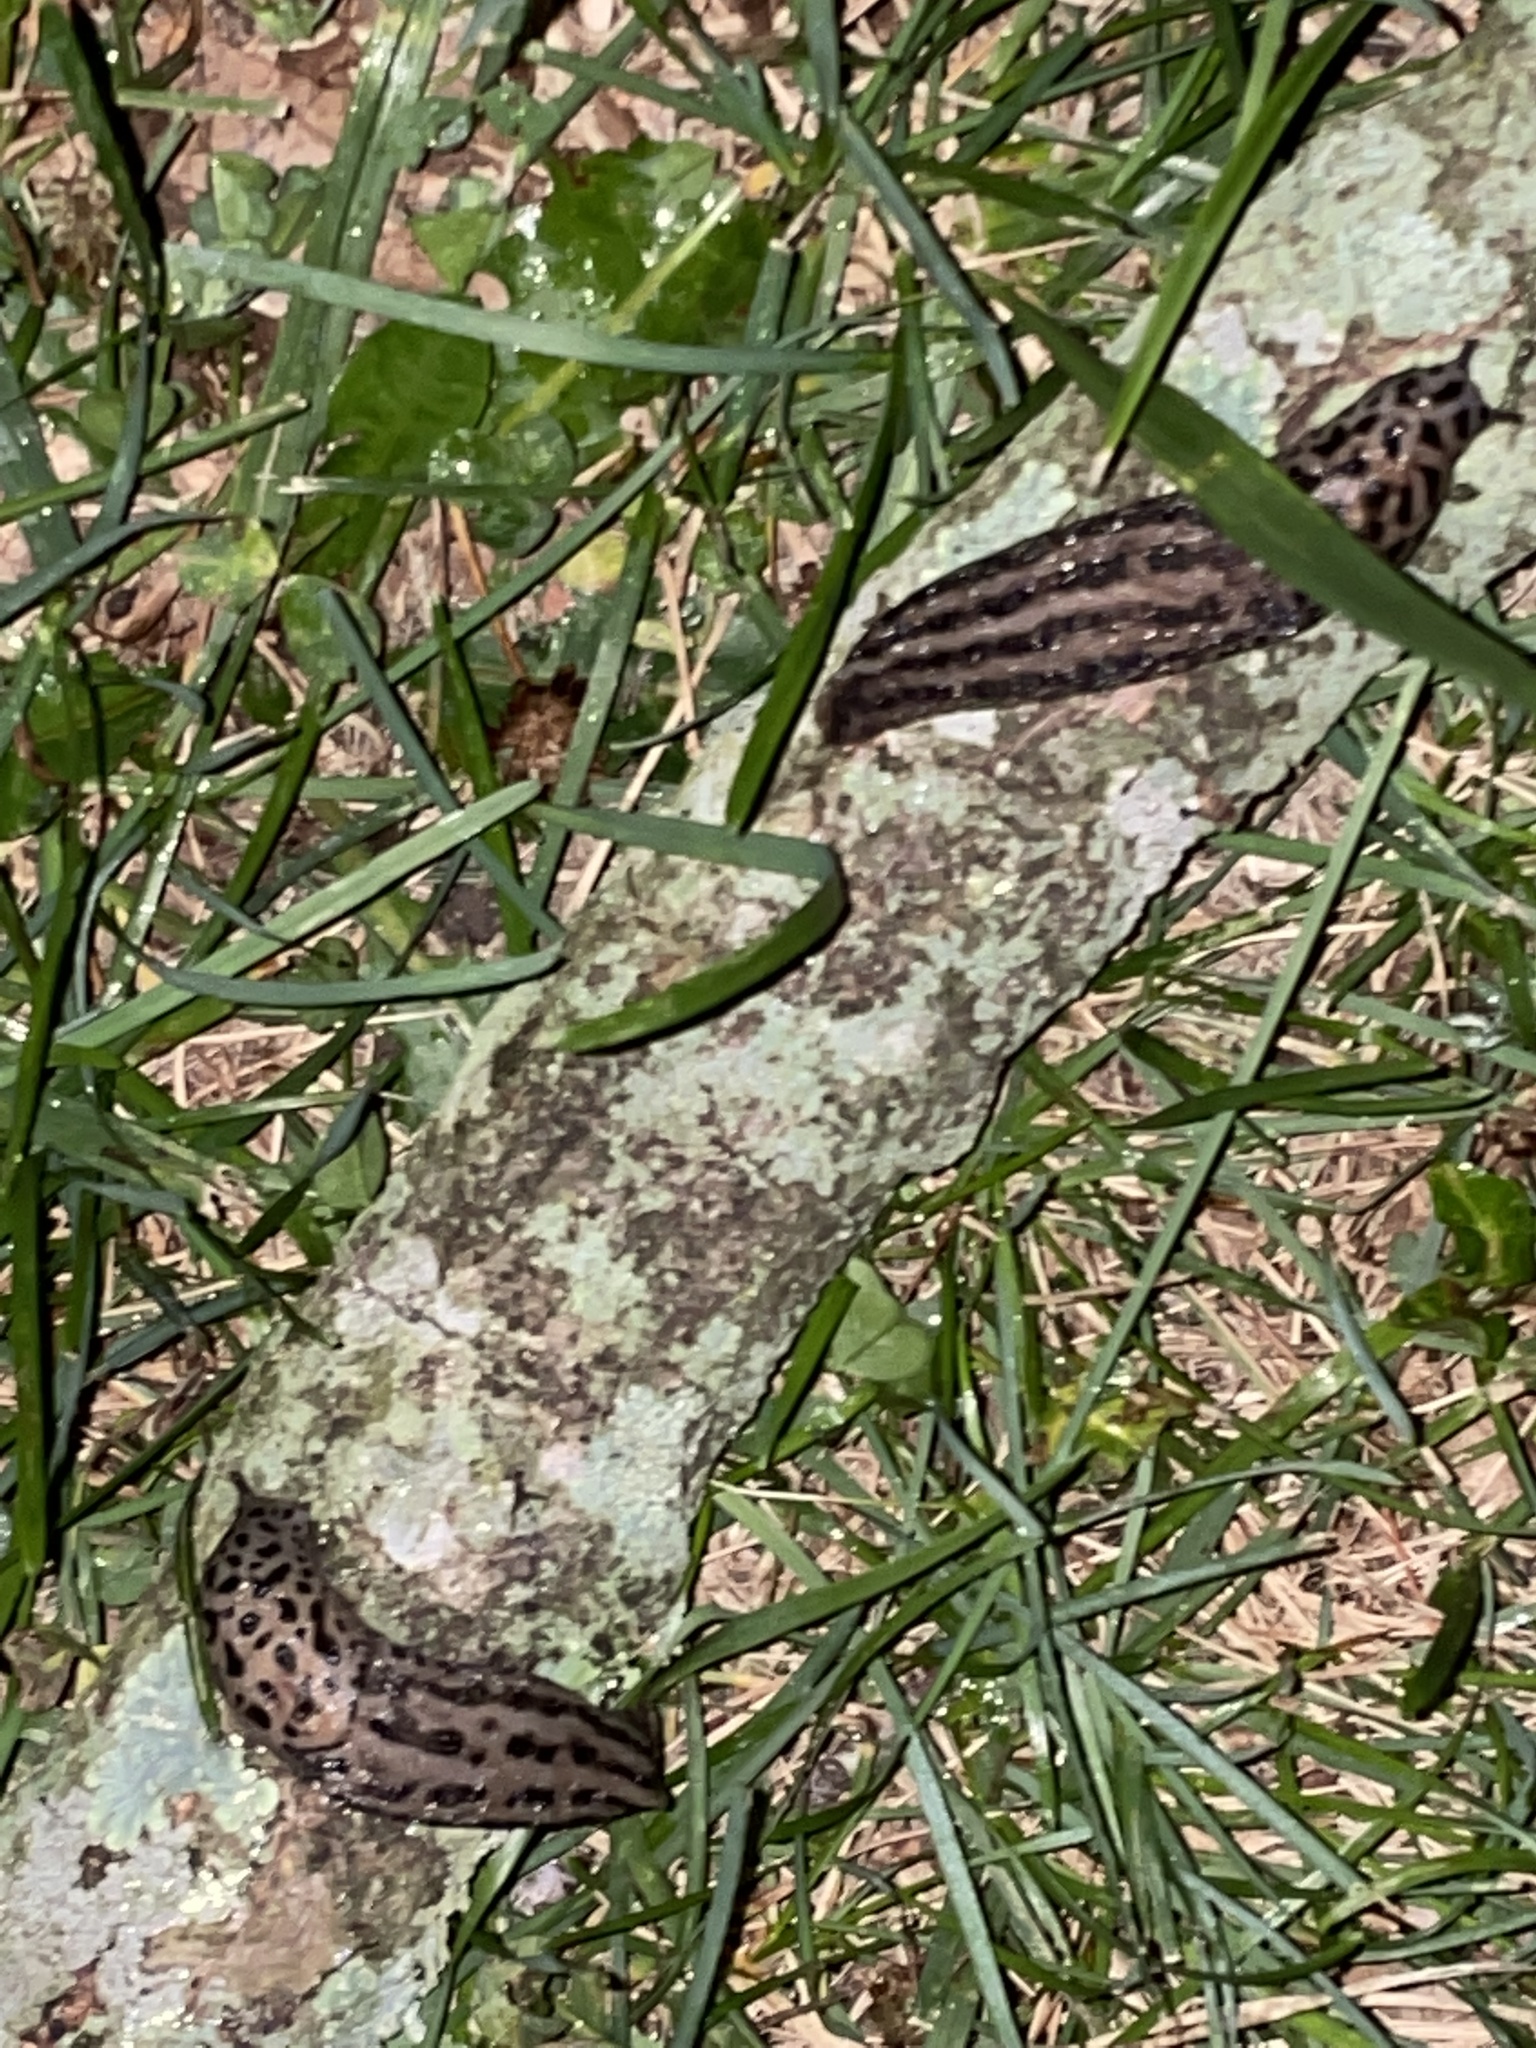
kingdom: Animalia
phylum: Mollusca
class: Gastropoda
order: Stylommatophora
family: Limacidae
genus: Limax
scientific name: Limax maximus
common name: Great grey slug
